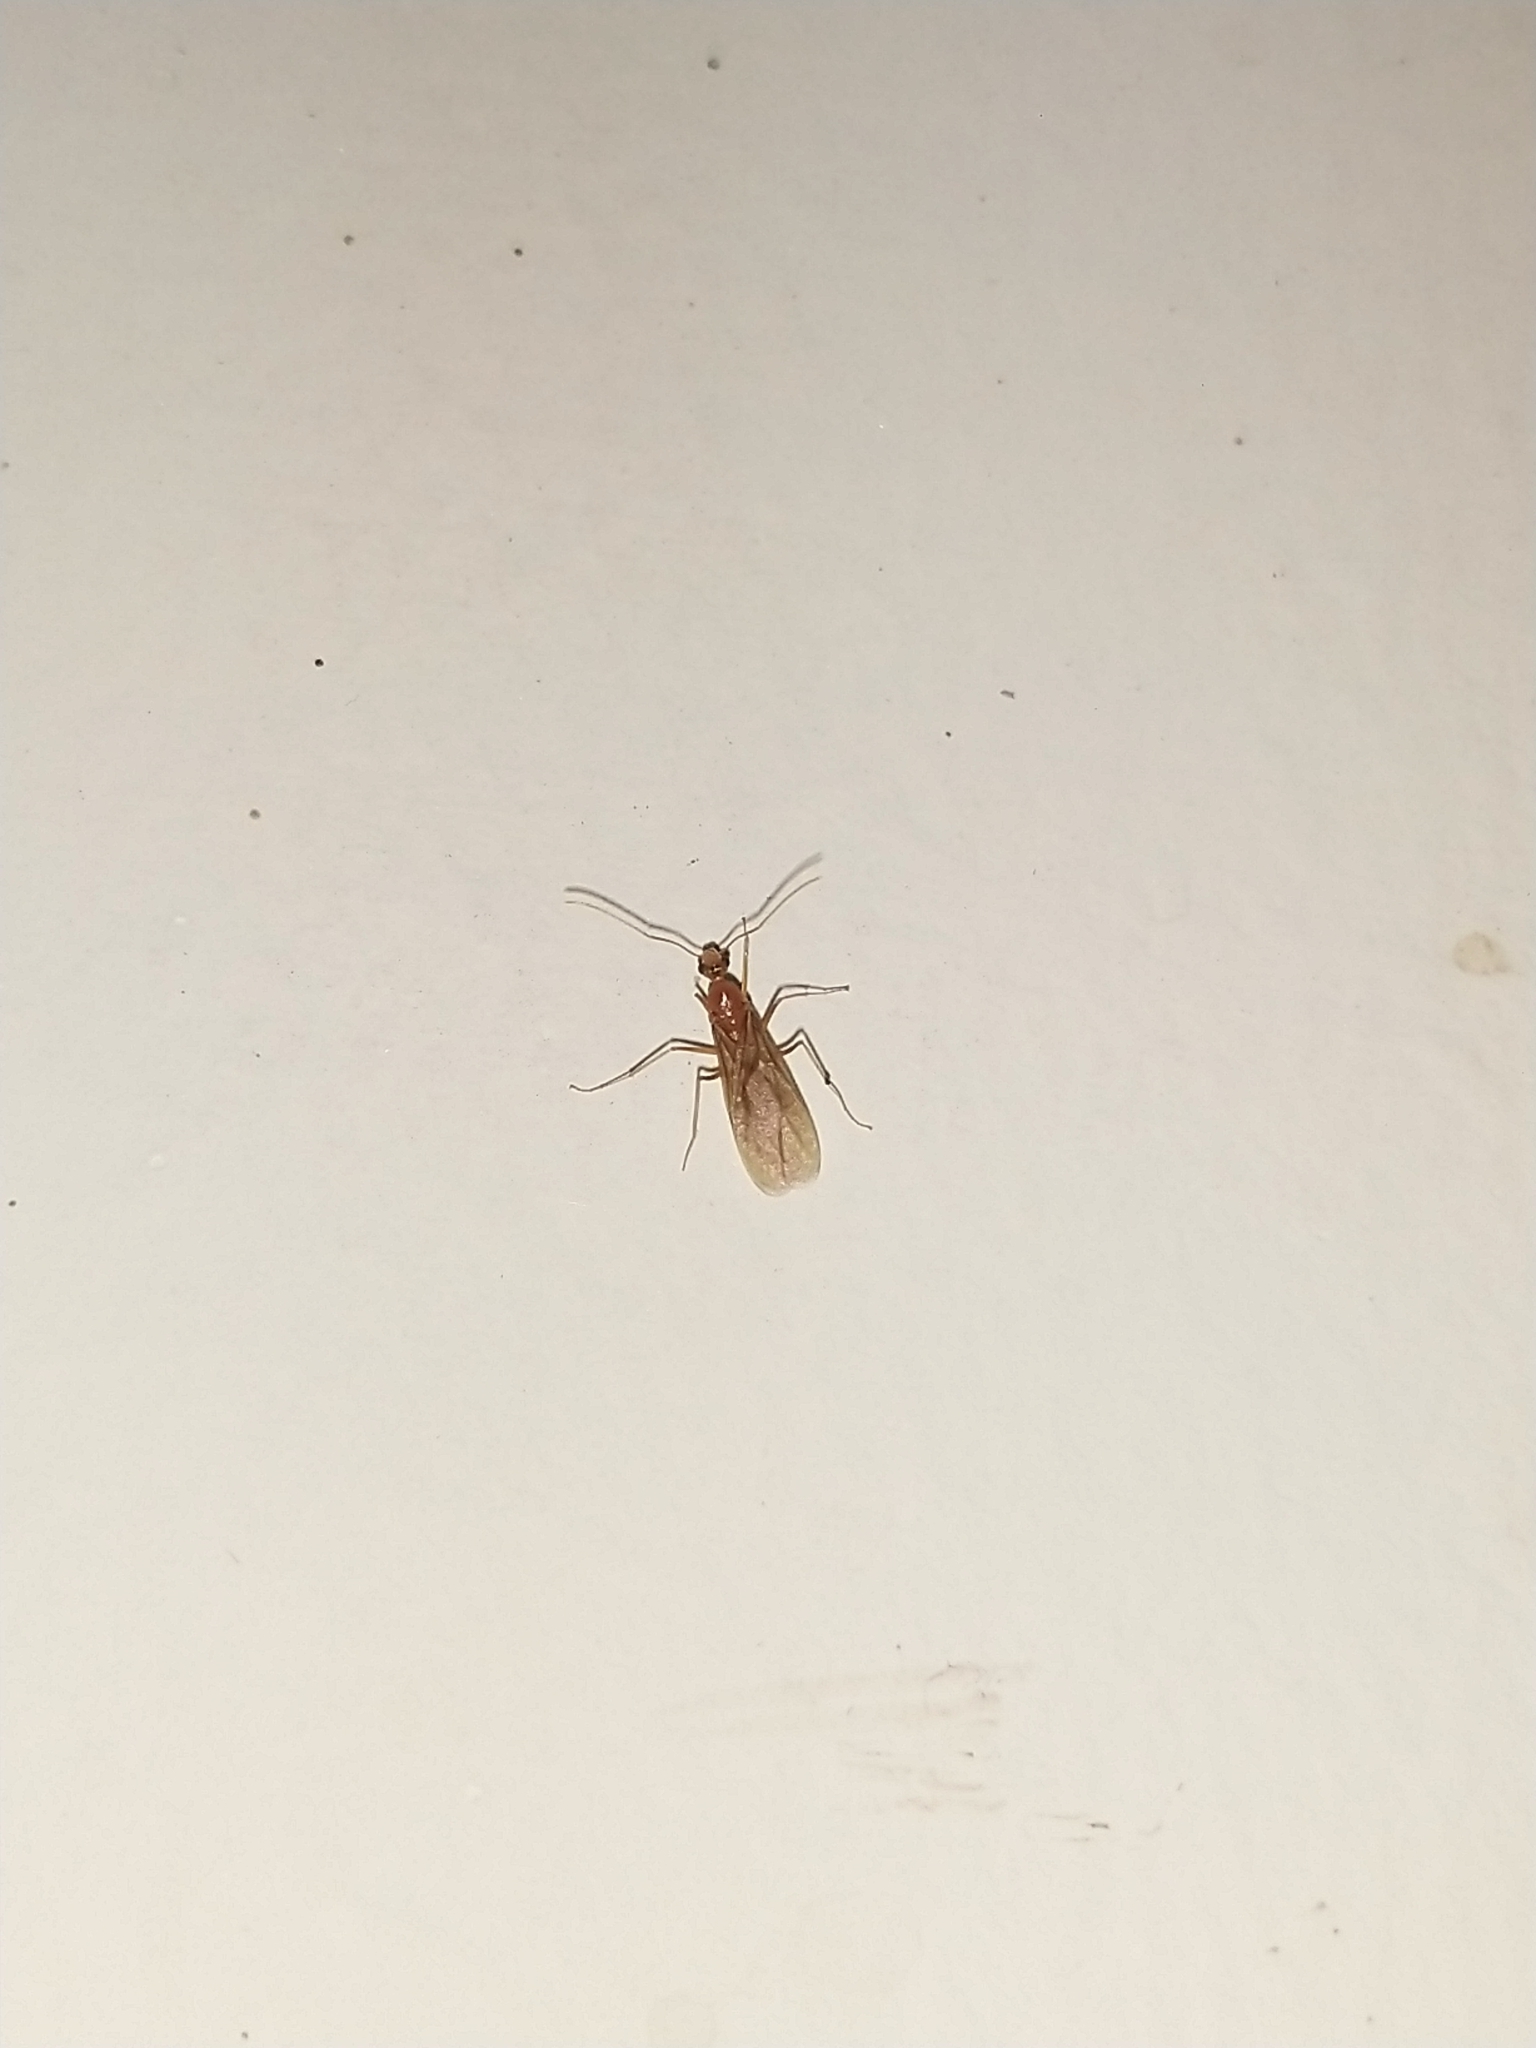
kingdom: Animalia
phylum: Arthropoda
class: Insecta
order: Hymenoptera
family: Formicidae
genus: Anoplolepis
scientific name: Anoplolepis gracilipes
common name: Ant
